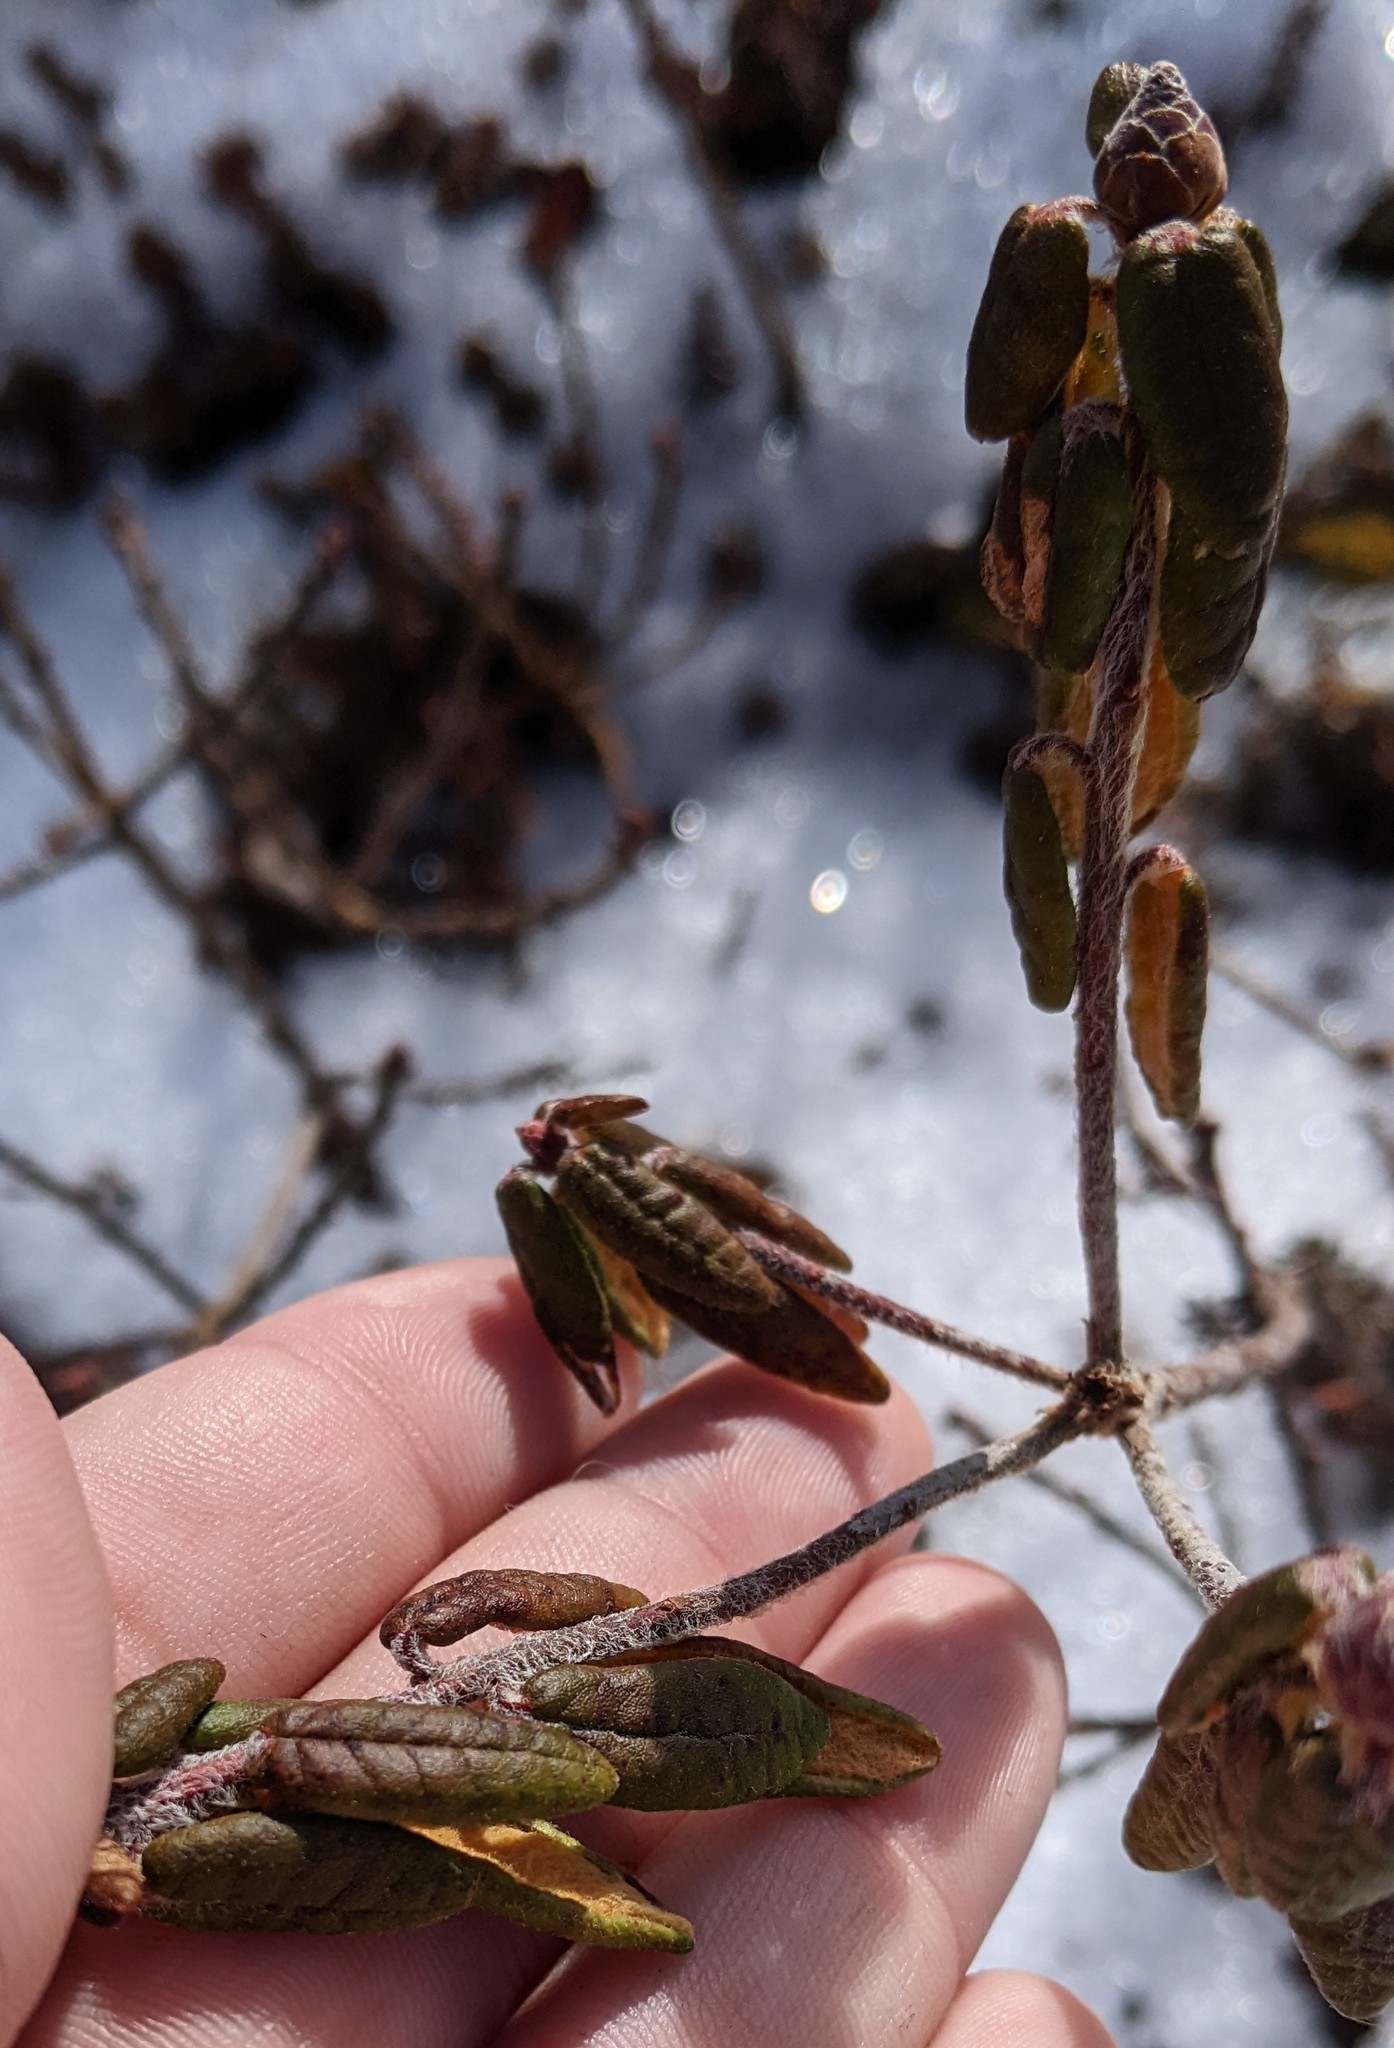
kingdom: Plantae
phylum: Tracheophyta
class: Magnoliopsida
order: Ericales
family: Ericaceae
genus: Rhododendron
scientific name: Rhododendron groenlandicum
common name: Bog labrador tea
